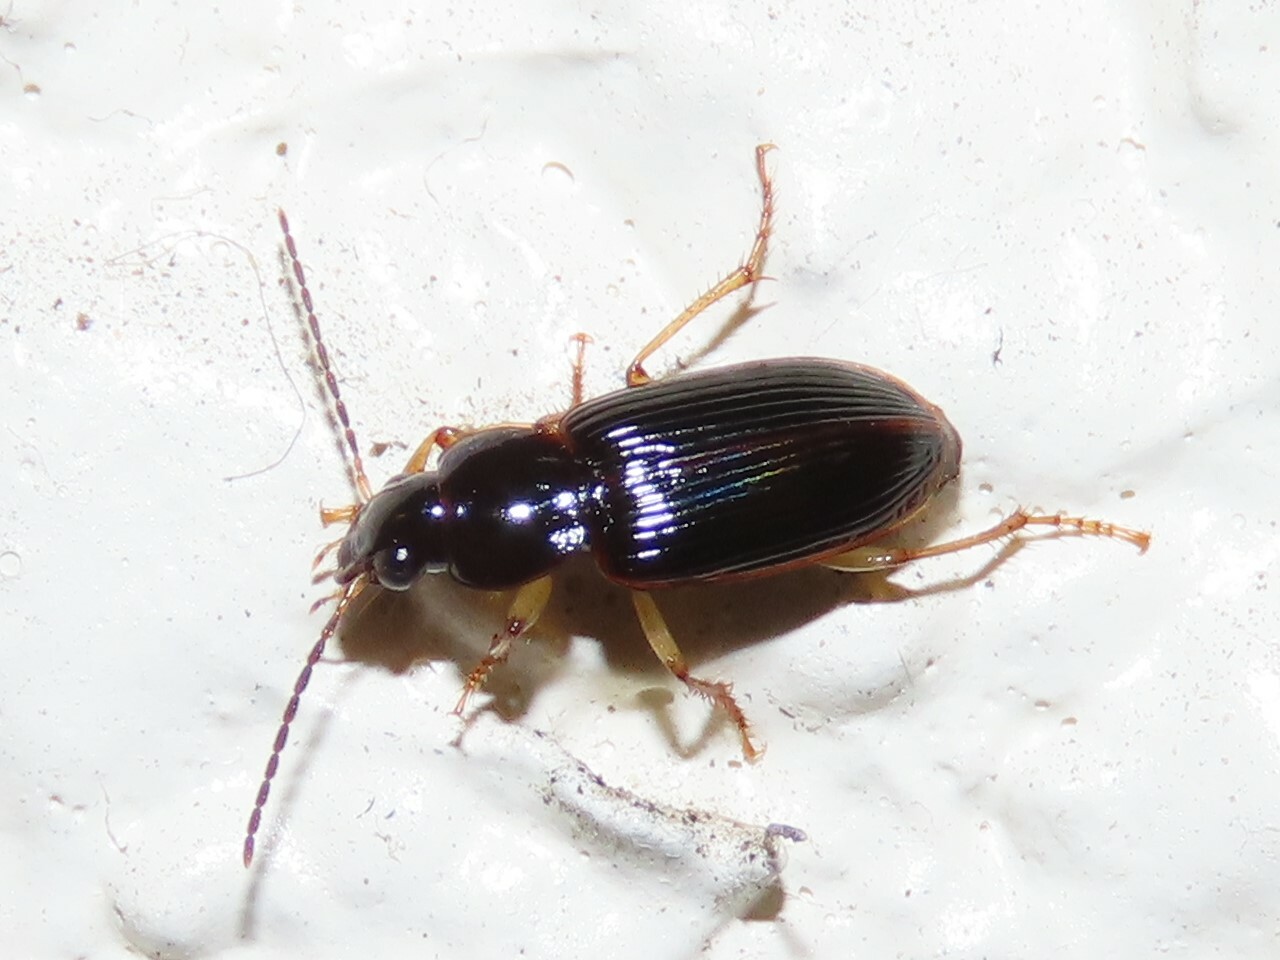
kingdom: Animalia
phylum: Arthropoda
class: Insecta
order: Coleoptera
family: Carabidae
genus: Stenolophus
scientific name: Stenolophus ochropezus
